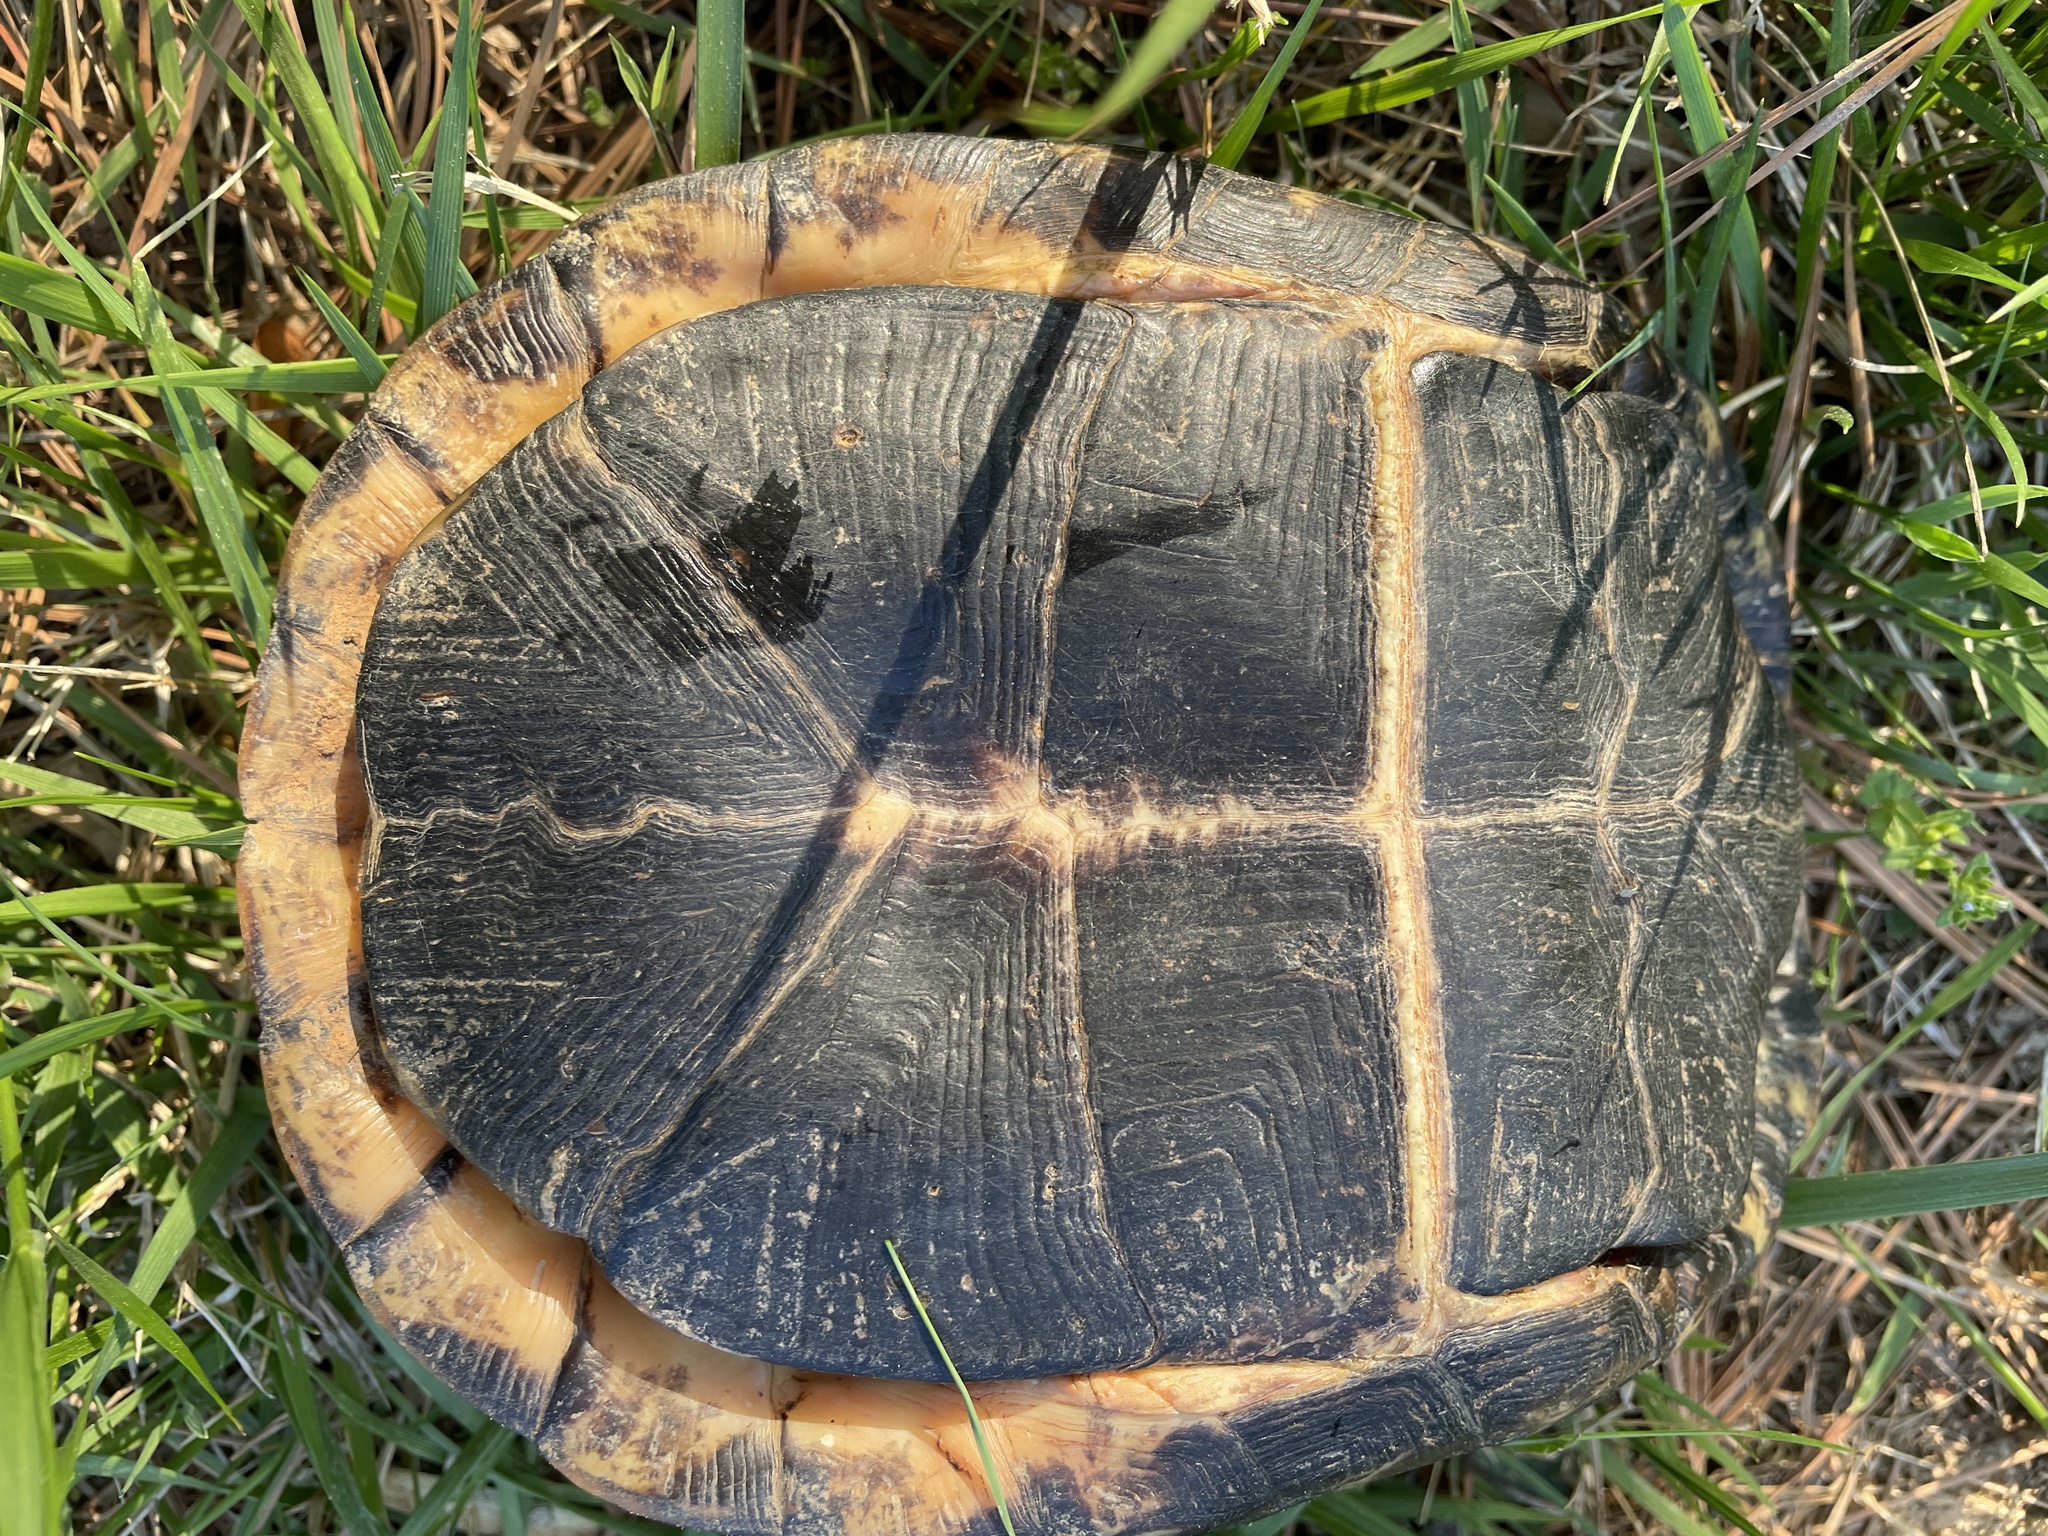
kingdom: Animalia
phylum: Chordata
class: Testudines
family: Emydidae
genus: Terrapene
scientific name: Terrapene carolina
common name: Common box turtle
